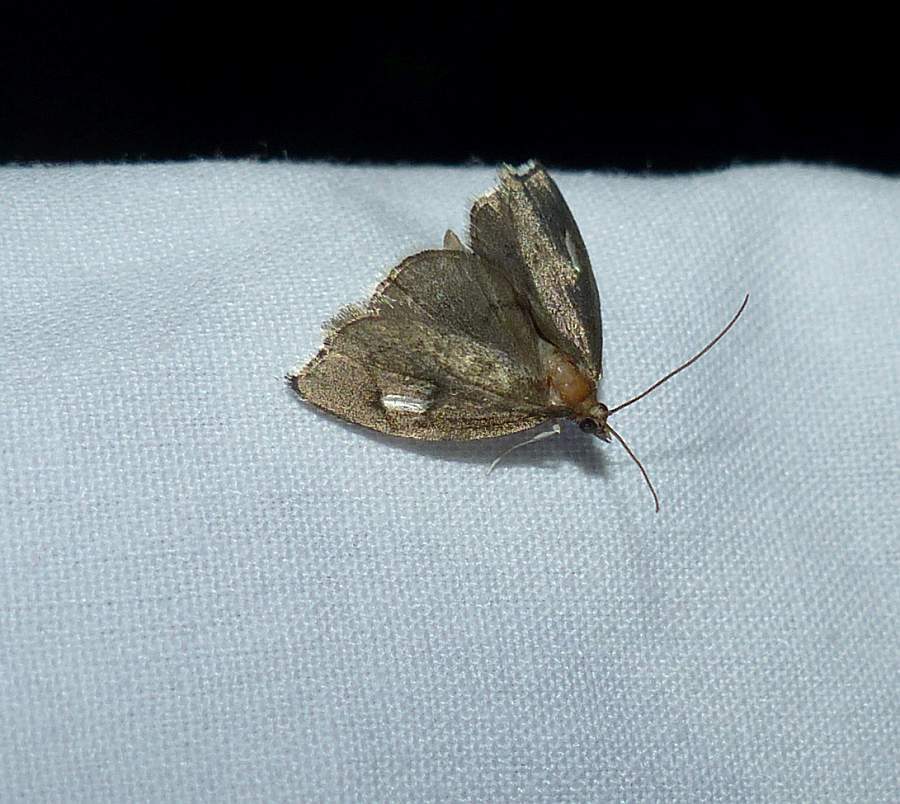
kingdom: Animalia
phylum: Arthropoda
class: Insecta
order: Lepidoptera
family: Crambidae
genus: Perispasta
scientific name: Perispasta caeculalis
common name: Titian peale's moth
